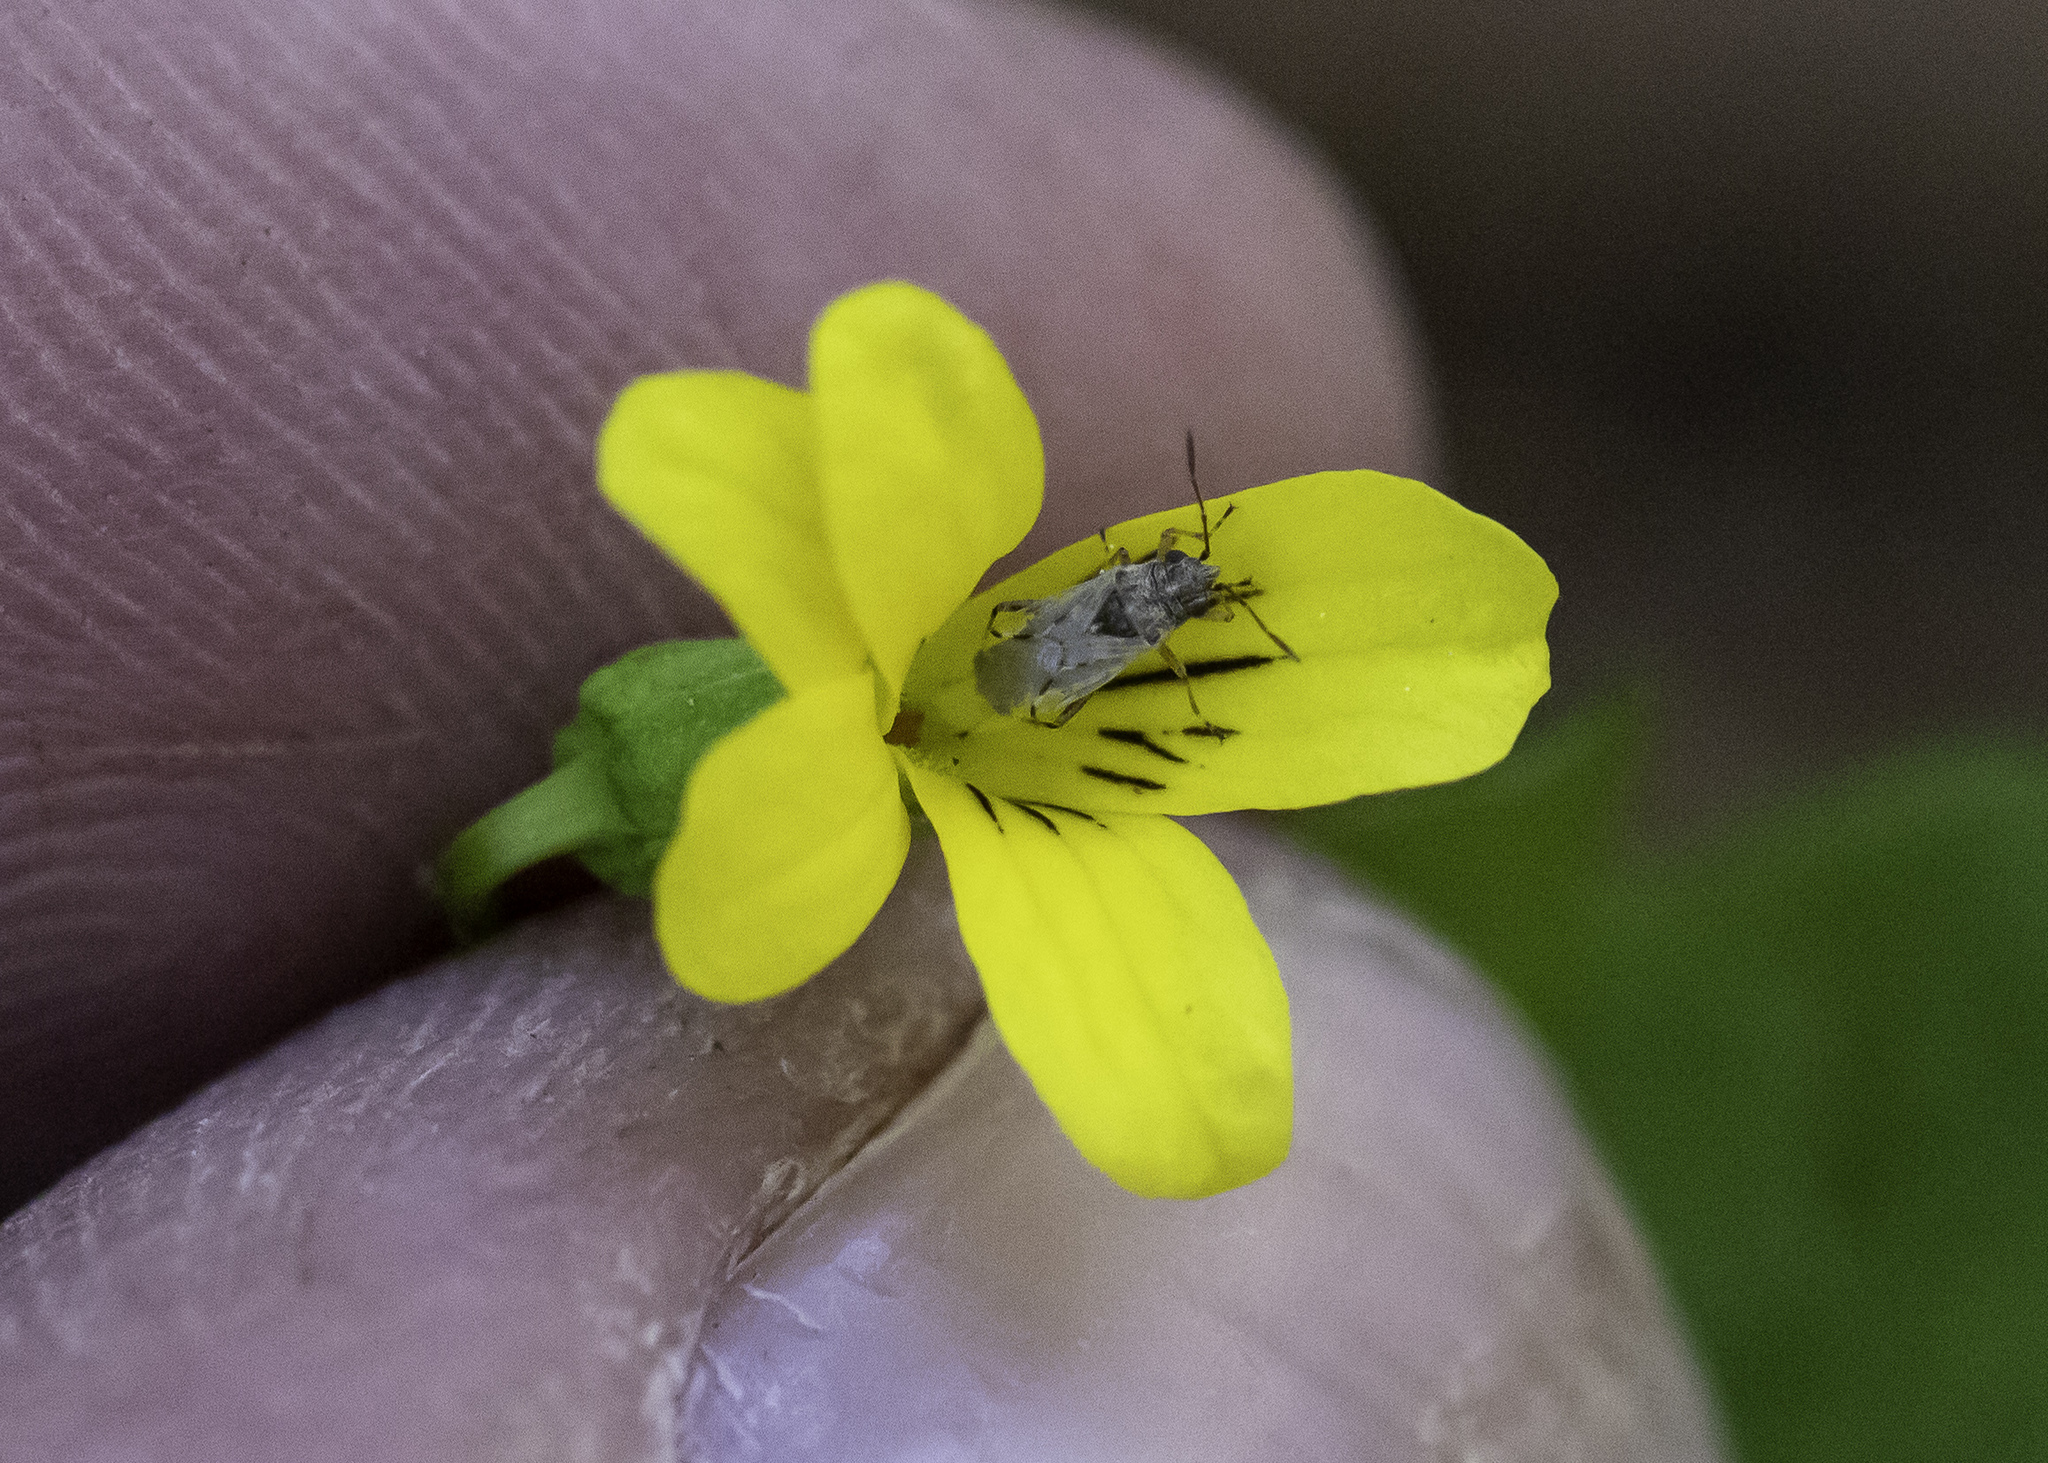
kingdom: Plantae
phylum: Tracheophyta
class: Magnoliopsida
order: Malpighiales
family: Violaceae
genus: Viola
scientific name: Viola glabella
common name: Stream violet
